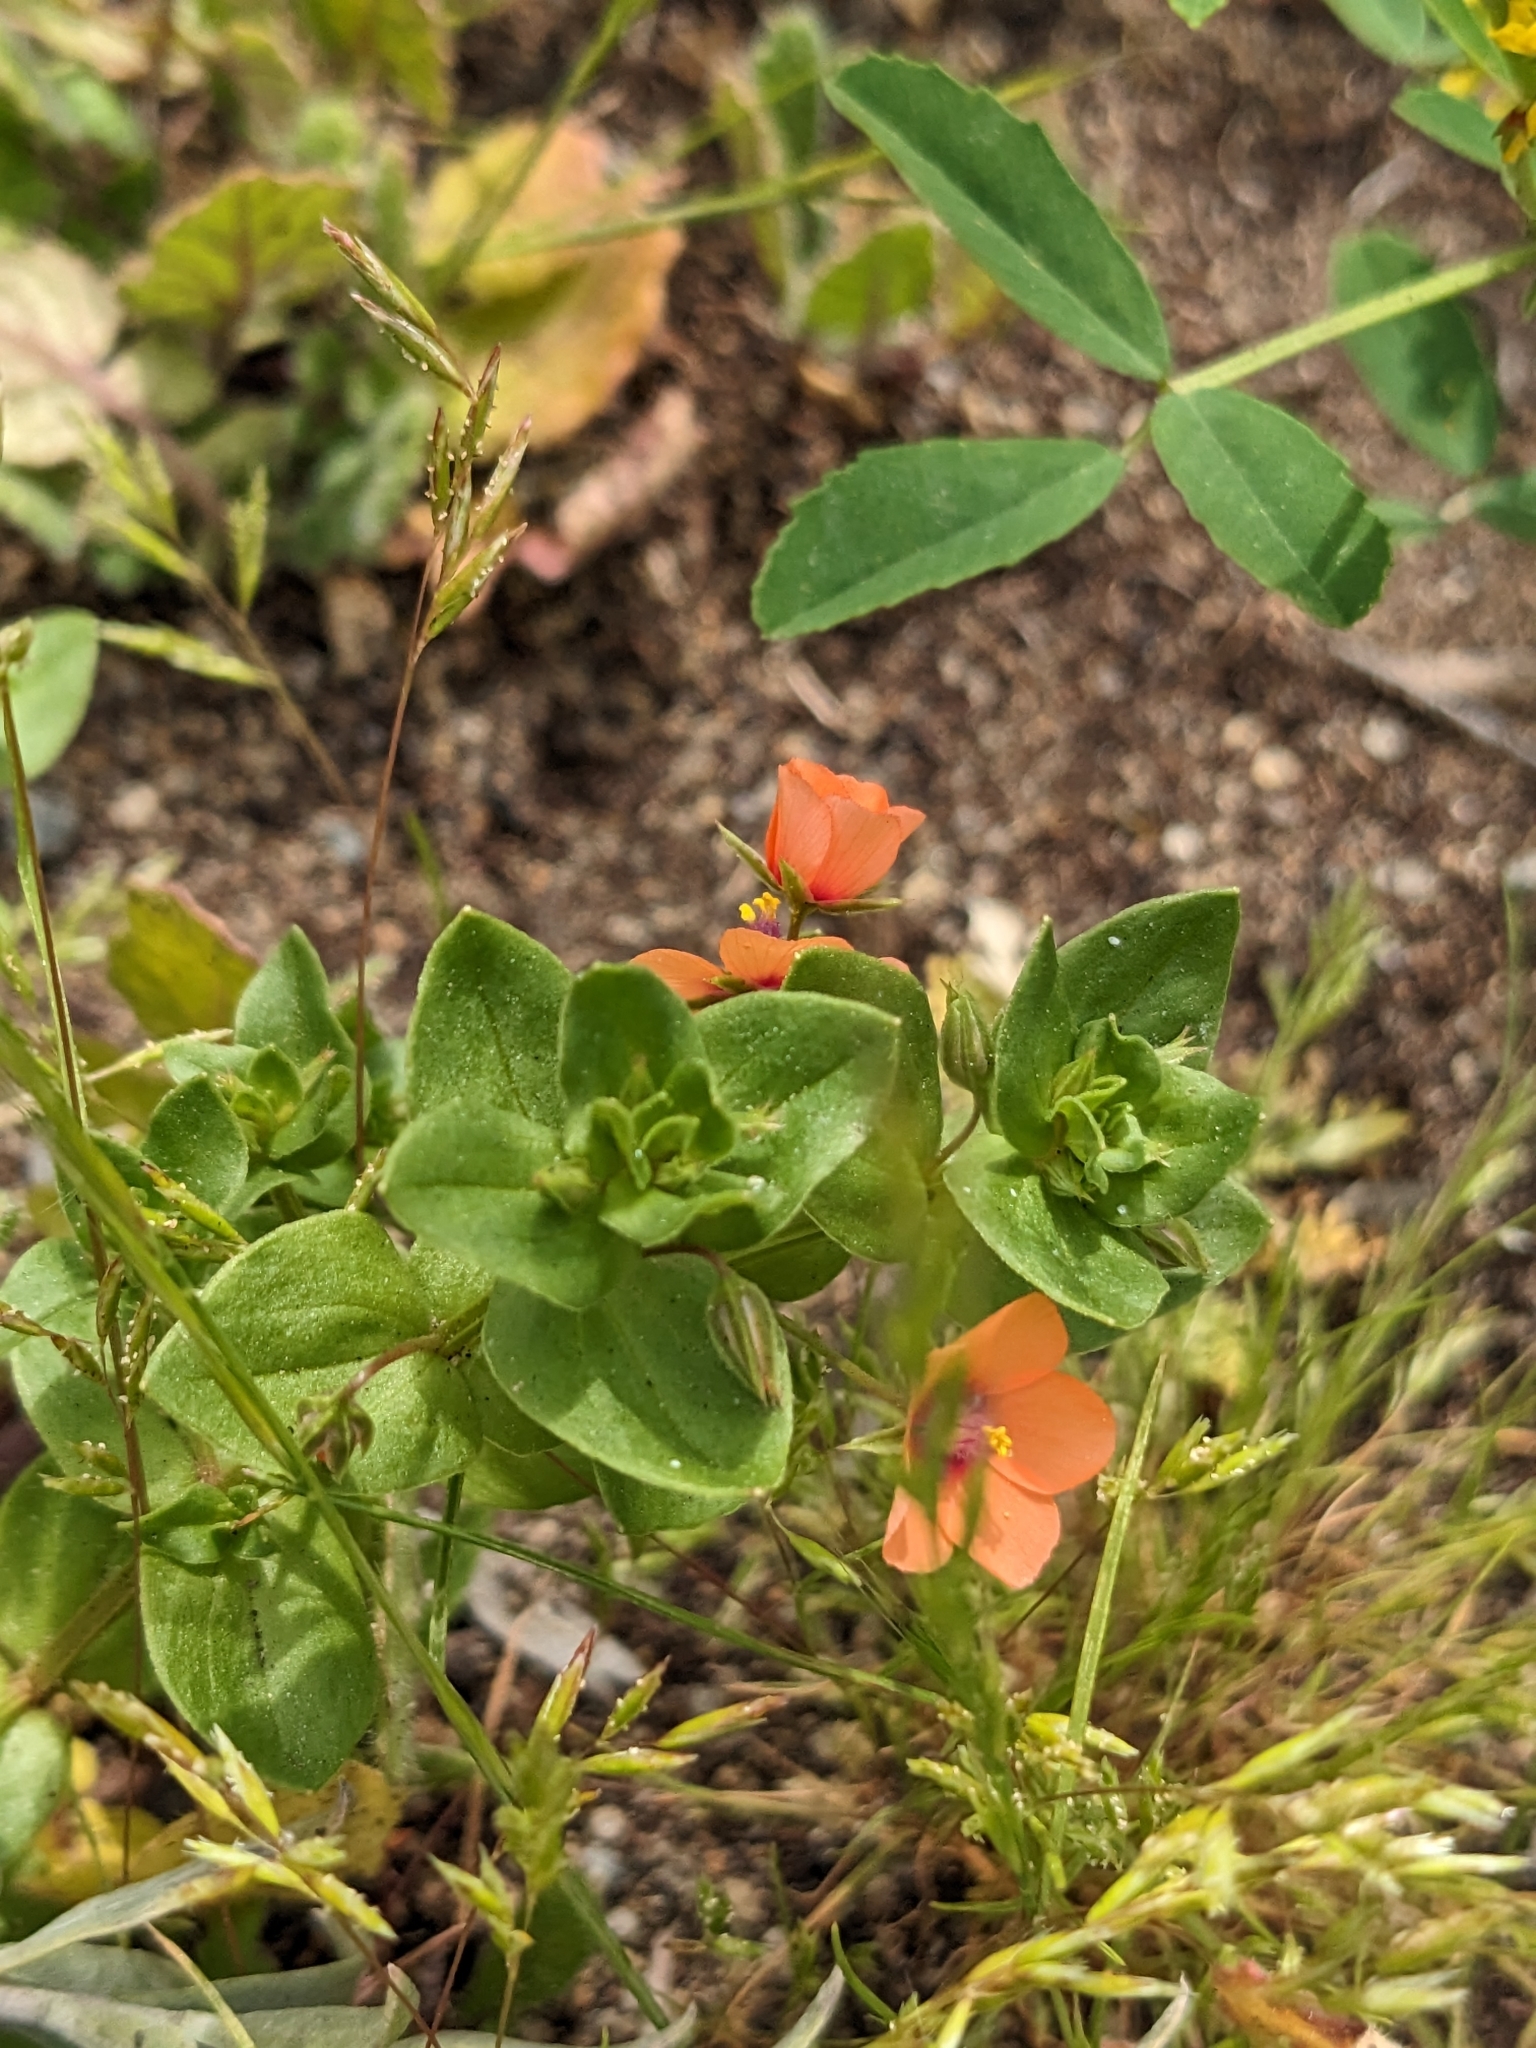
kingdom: Plantae
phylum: Tracheophyta
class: Magnoliopsida
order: Ericales
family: Primulaceae
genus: Lysimachia
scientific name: Lysimachia arvensis
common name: Scarlet pimpernel
